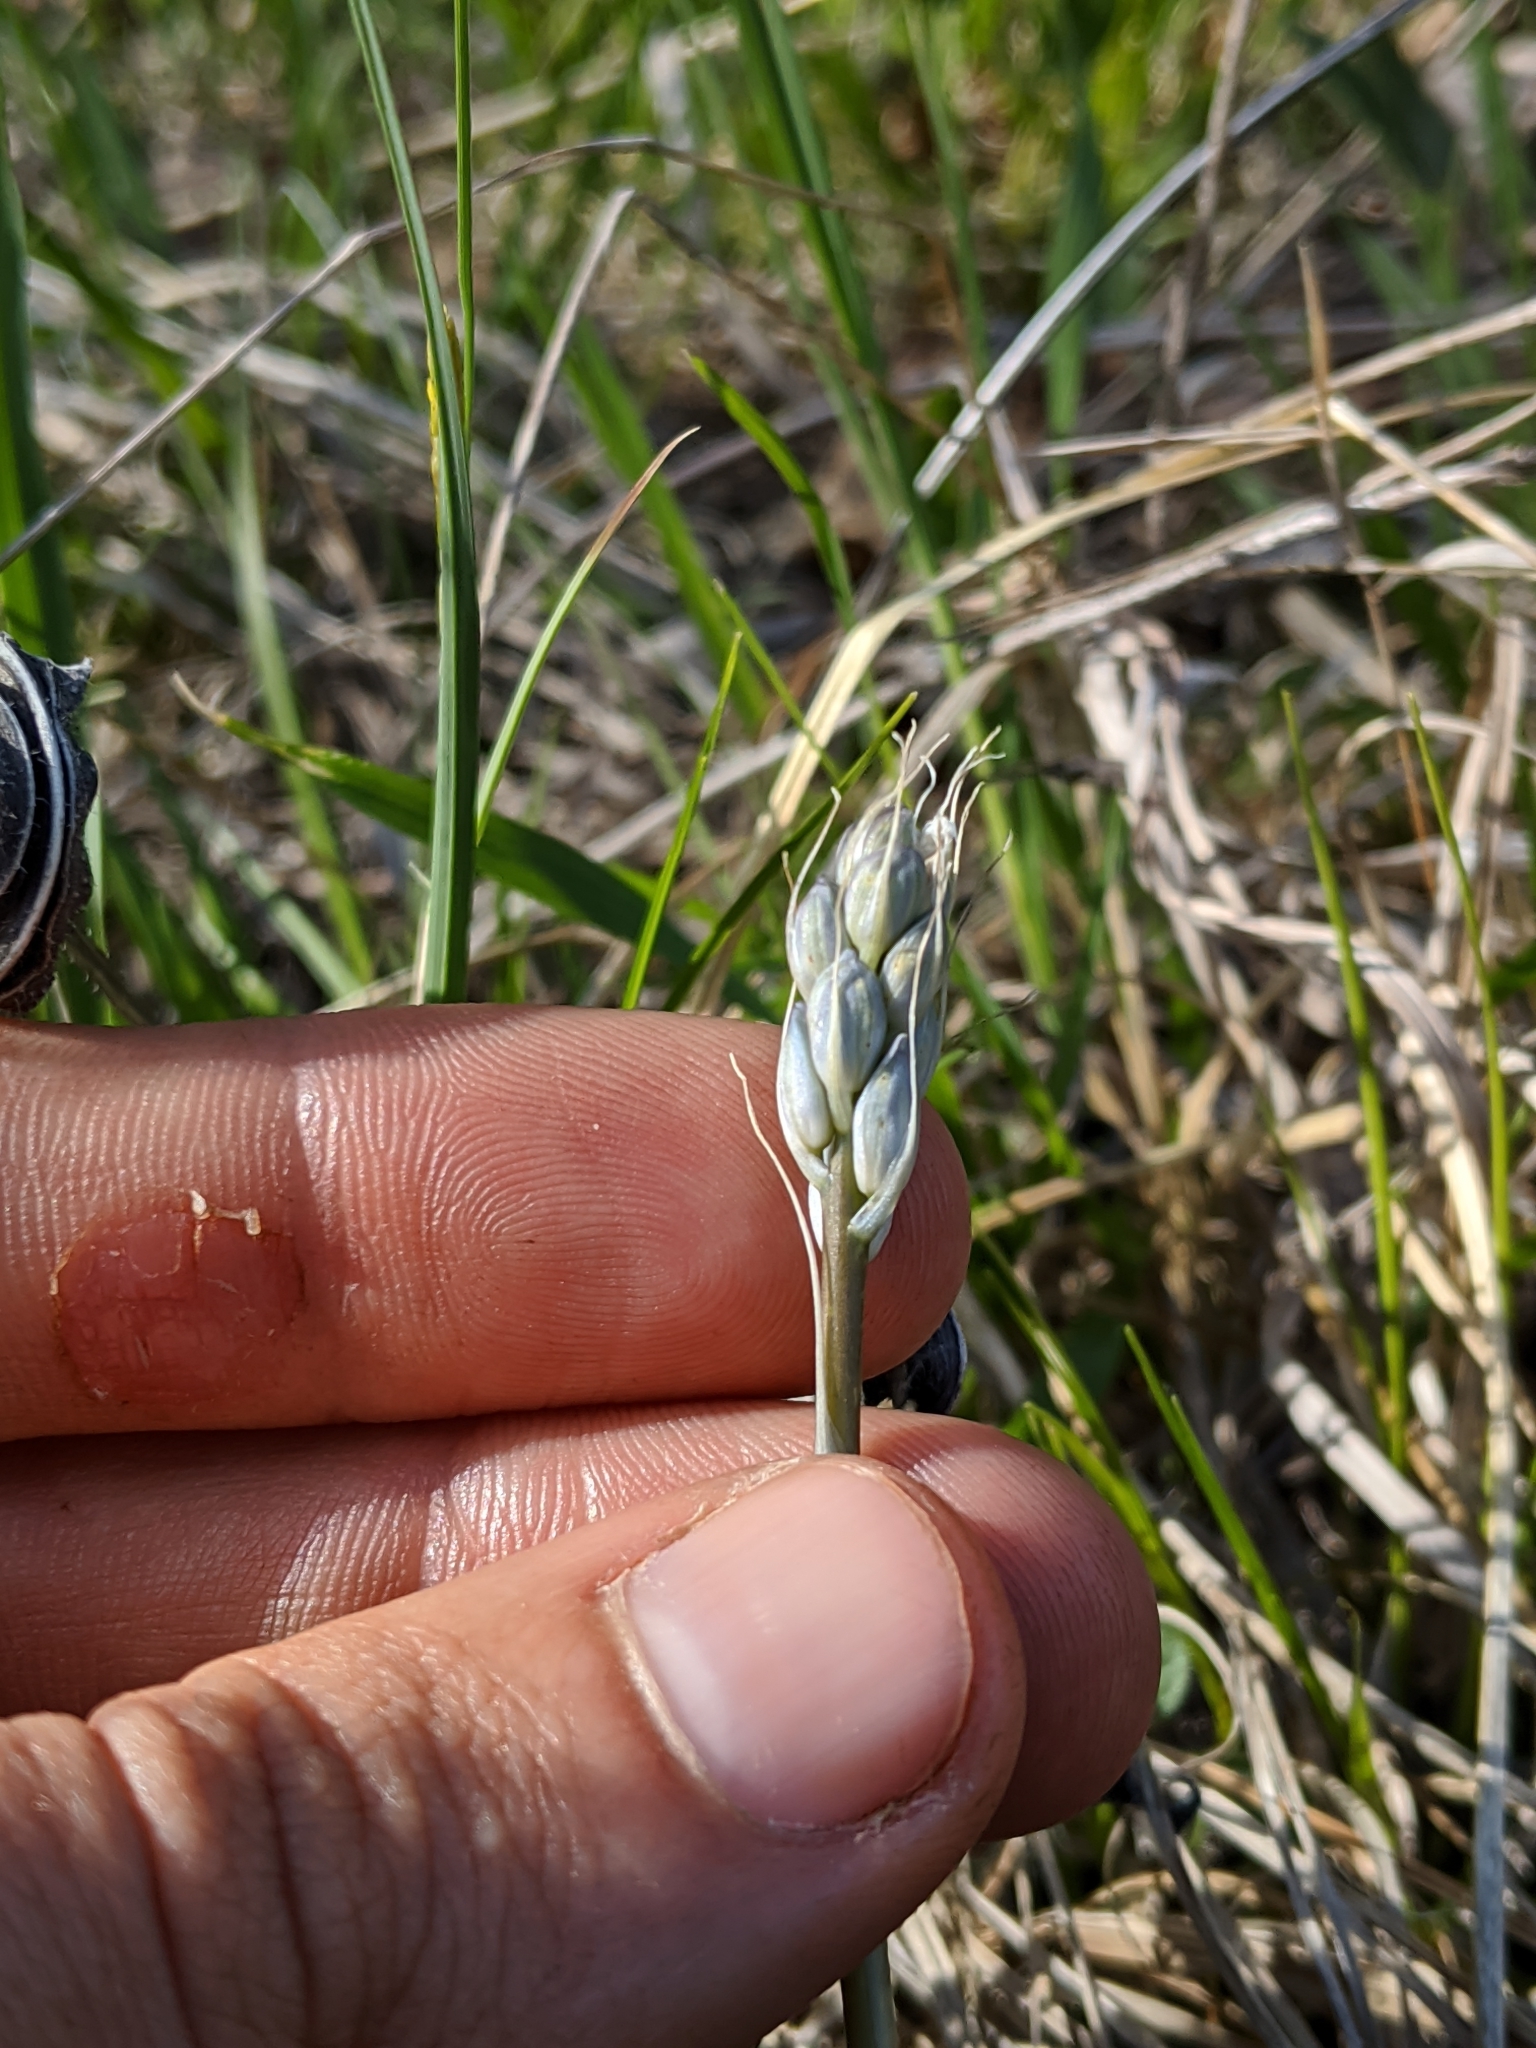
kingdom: Plantae
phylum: Tracheophyta
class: Liliopsida
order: Asparagales
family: Asparagaceae
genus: Camassia
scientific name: Camassia scilloides
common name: Wild hyacinth
